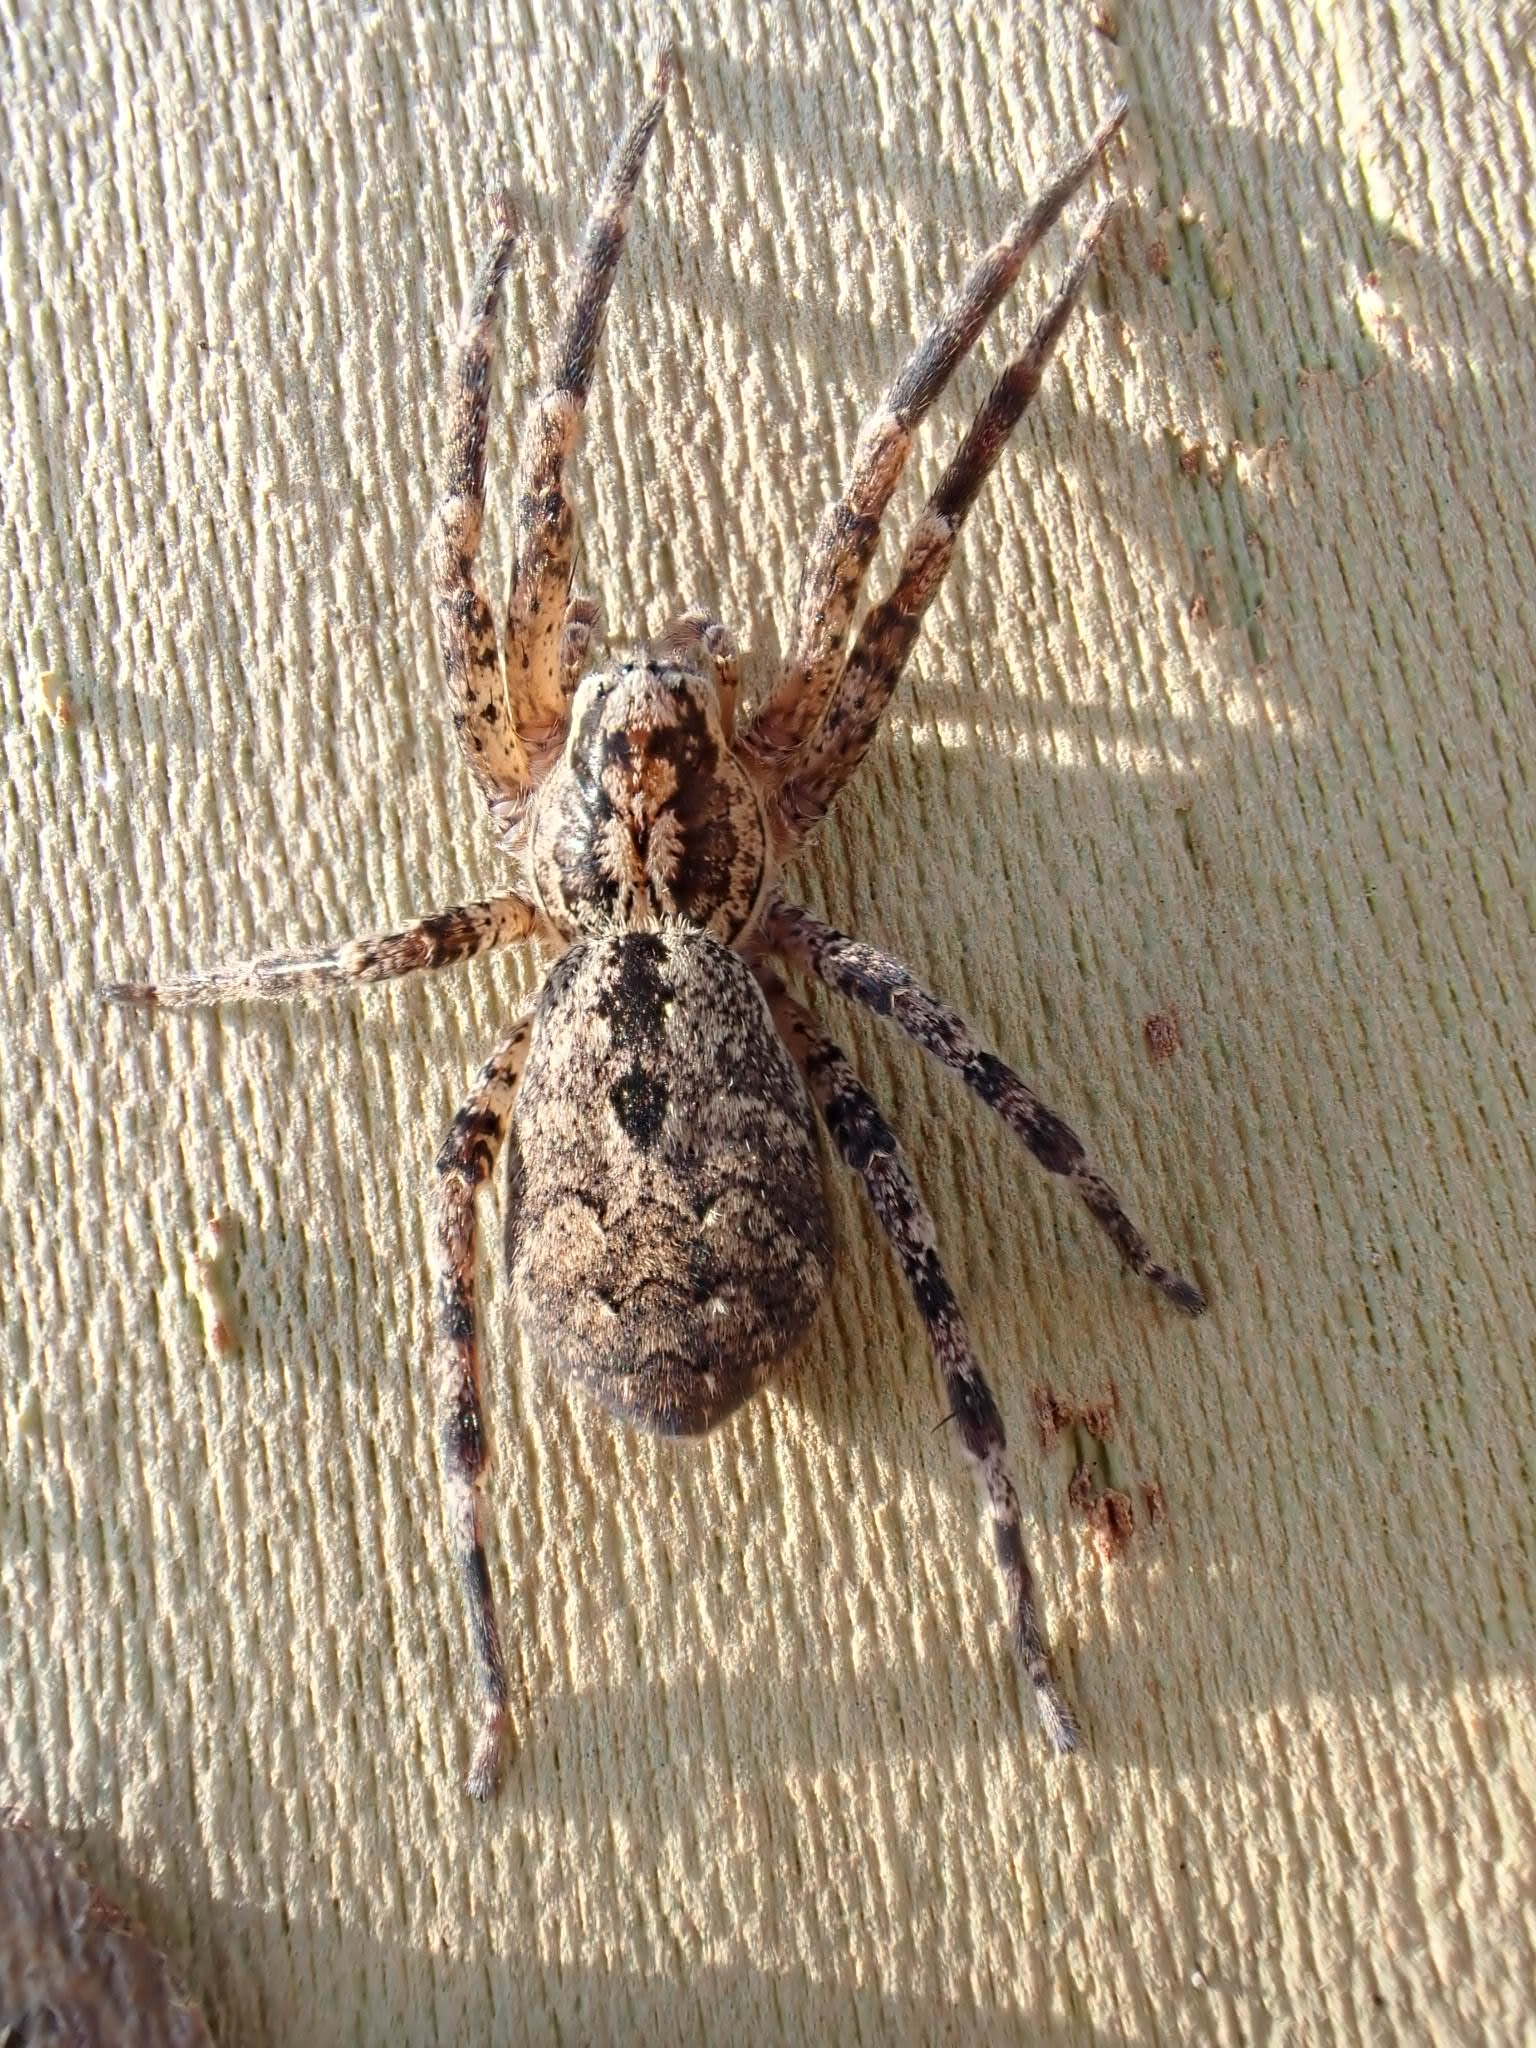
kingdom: Animalia
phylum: Arthropoda
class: Arachnida
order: Araneae
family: Zoropsidae
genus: Zoropsis
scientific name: Zoropsis spinimana
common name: Zoropsid spider
